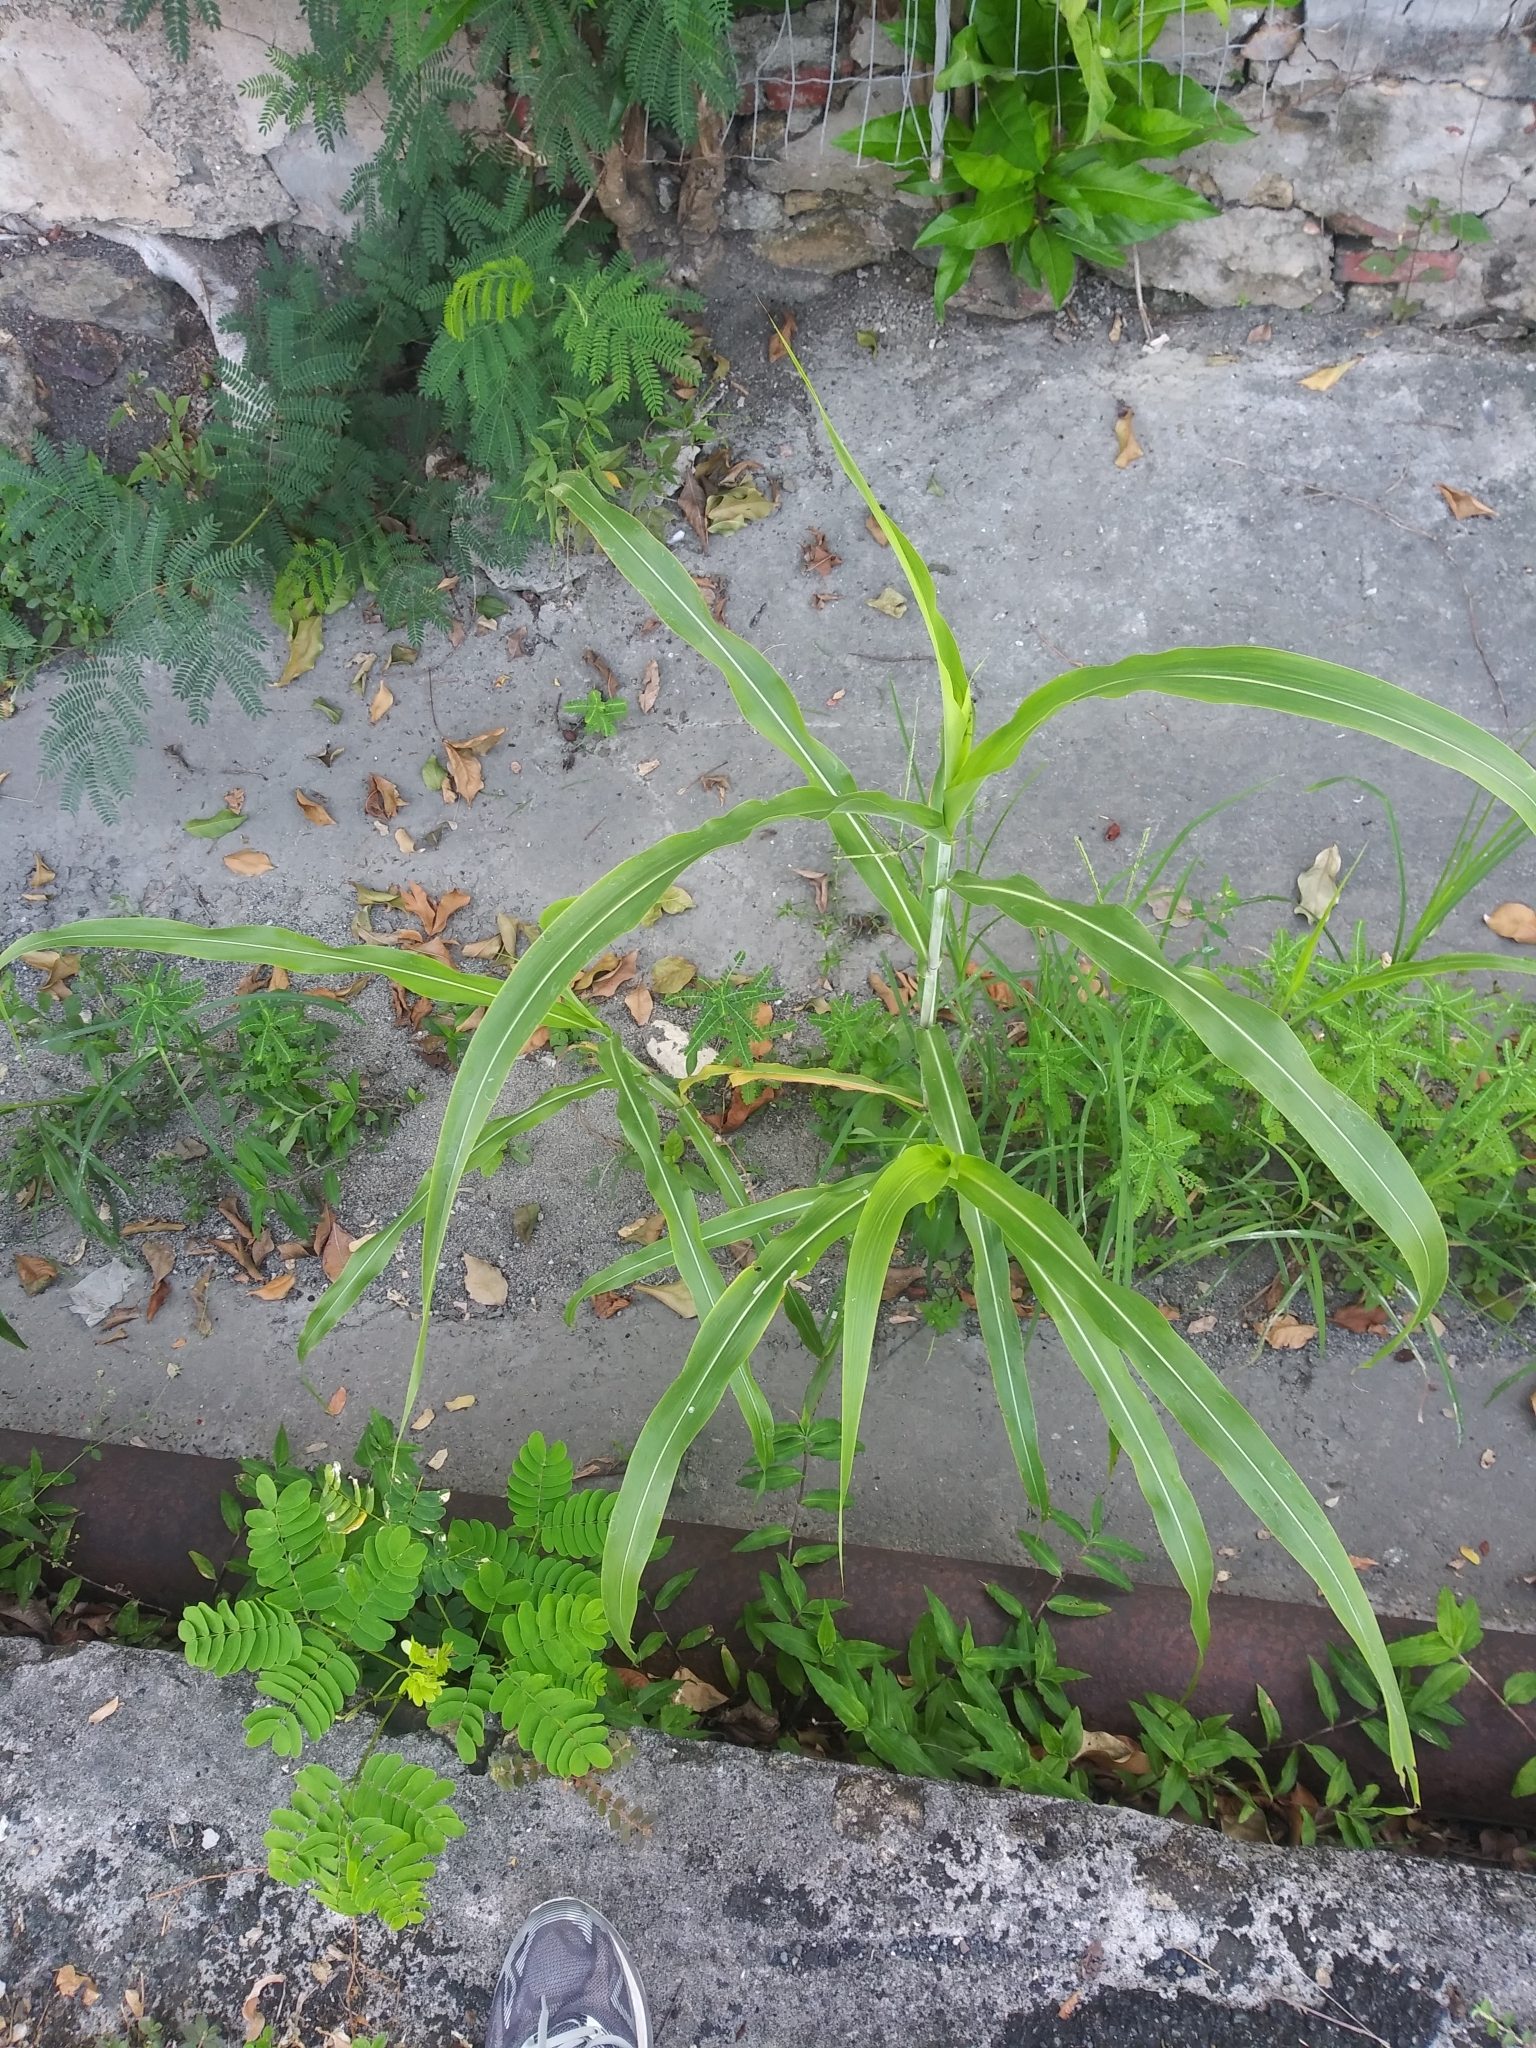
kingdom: Plantae
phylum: Tracheophyta
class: Liliopsida
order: Poales
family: Poaceae
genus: Sorghum
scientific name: Sorghum halepense
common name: Johnson-grass
